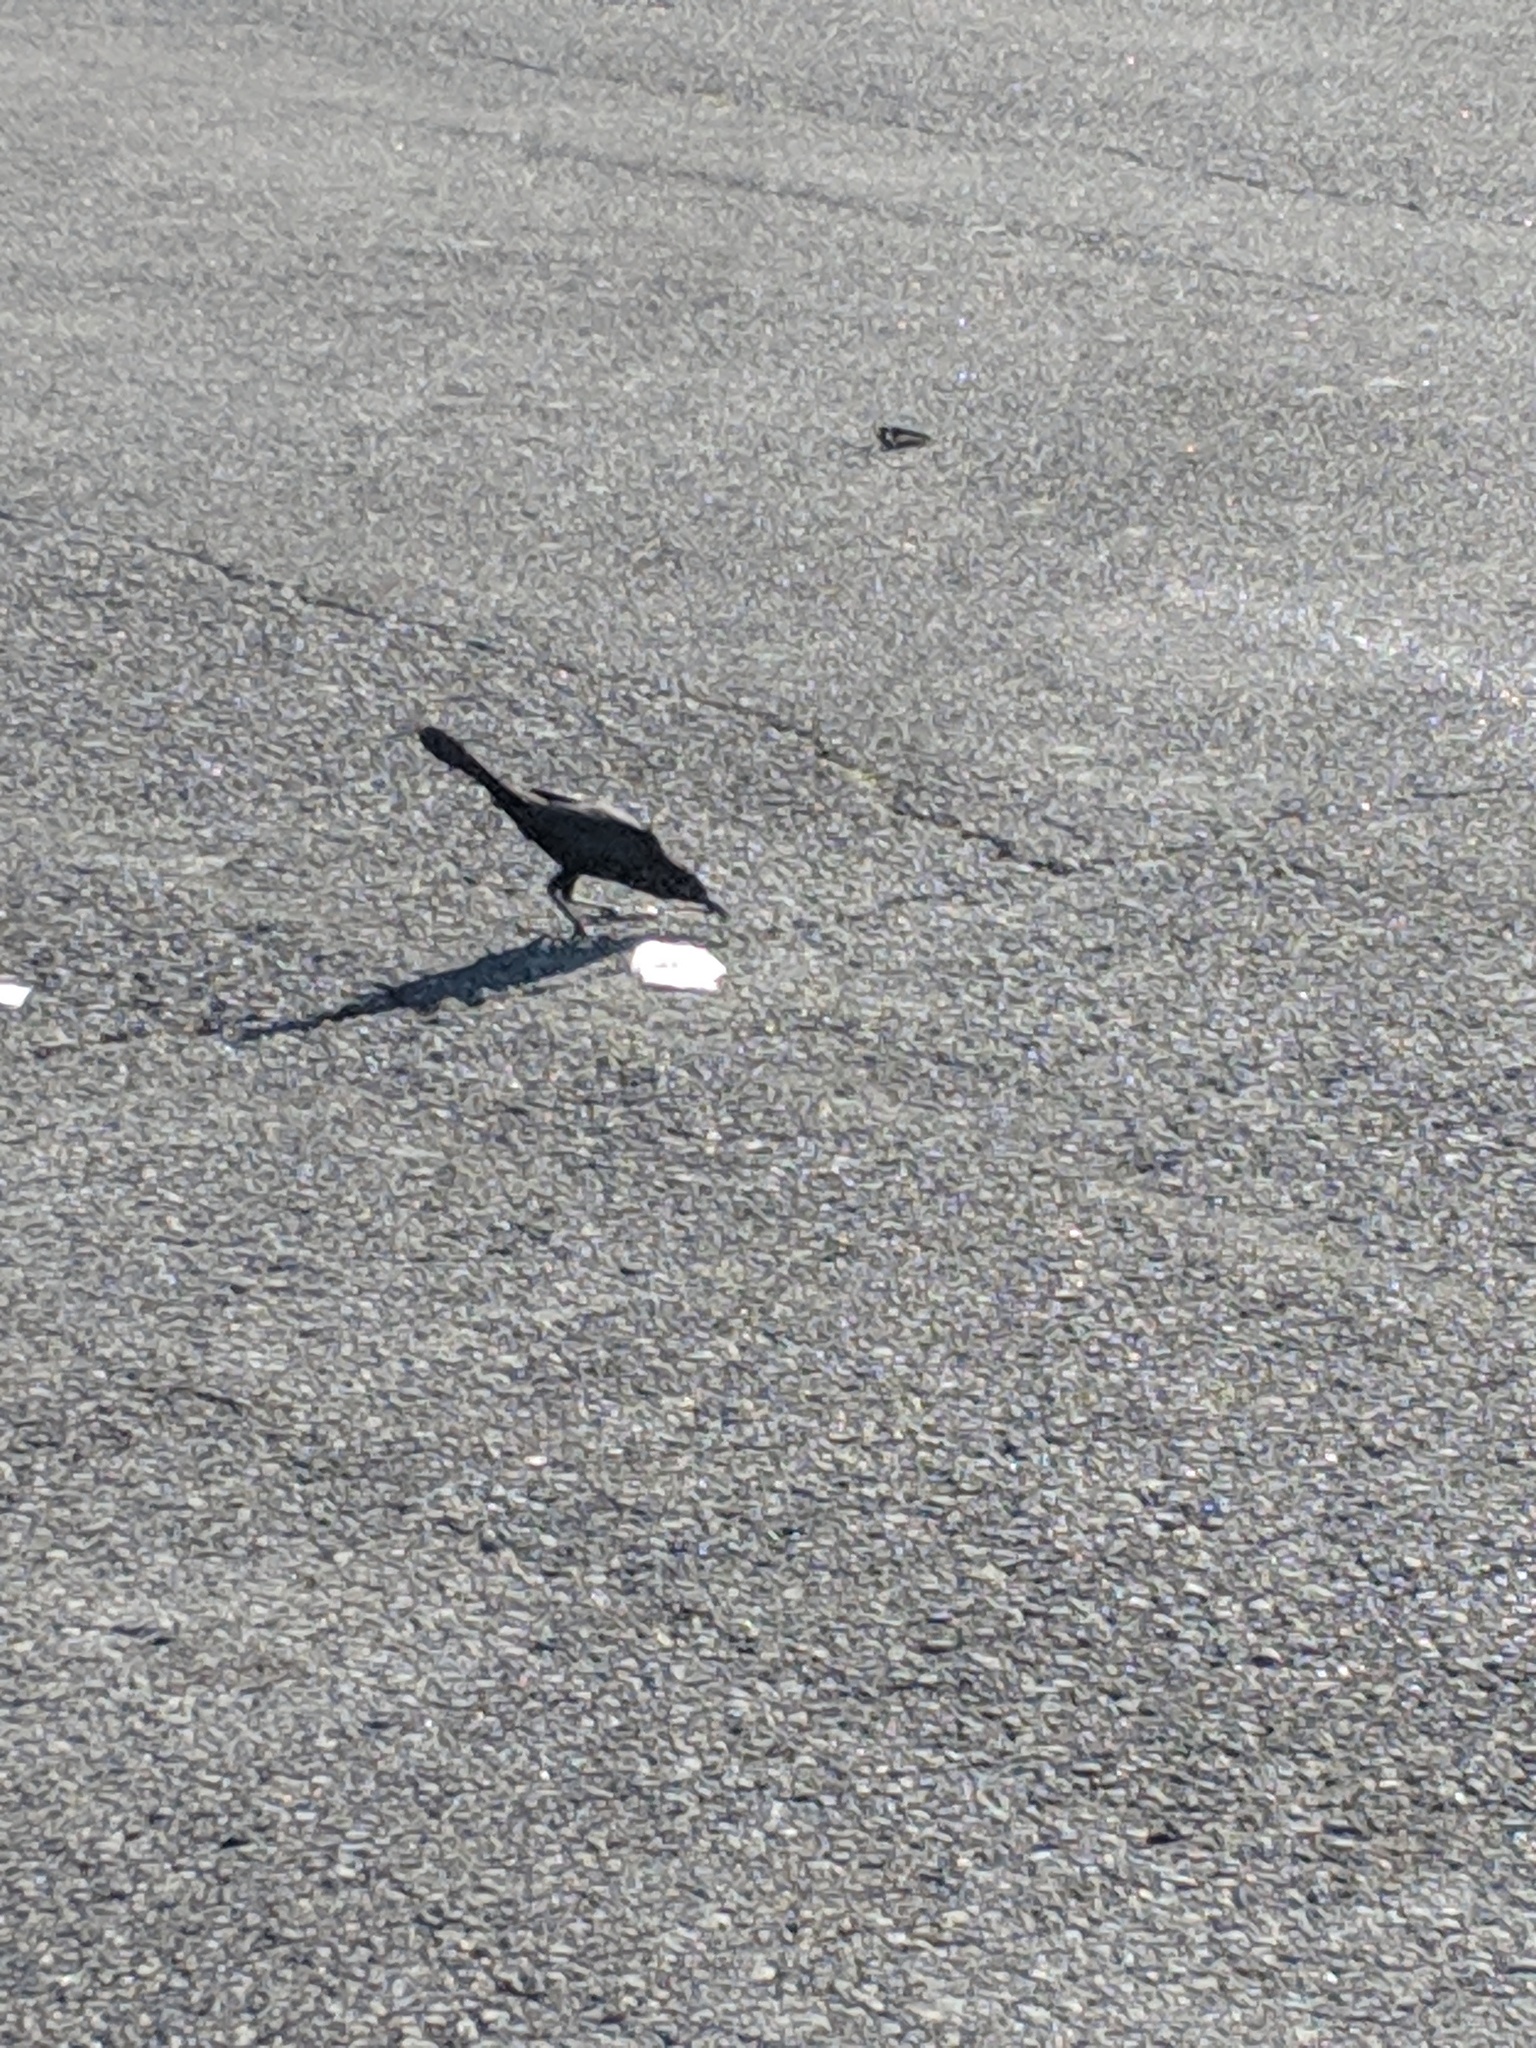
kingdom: Animalia
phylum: Chordata
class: Aves
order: Passeriformes
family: Icteridae
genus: Quiscalus
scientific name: Quiscalus major
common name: Boat-tailed grackle
